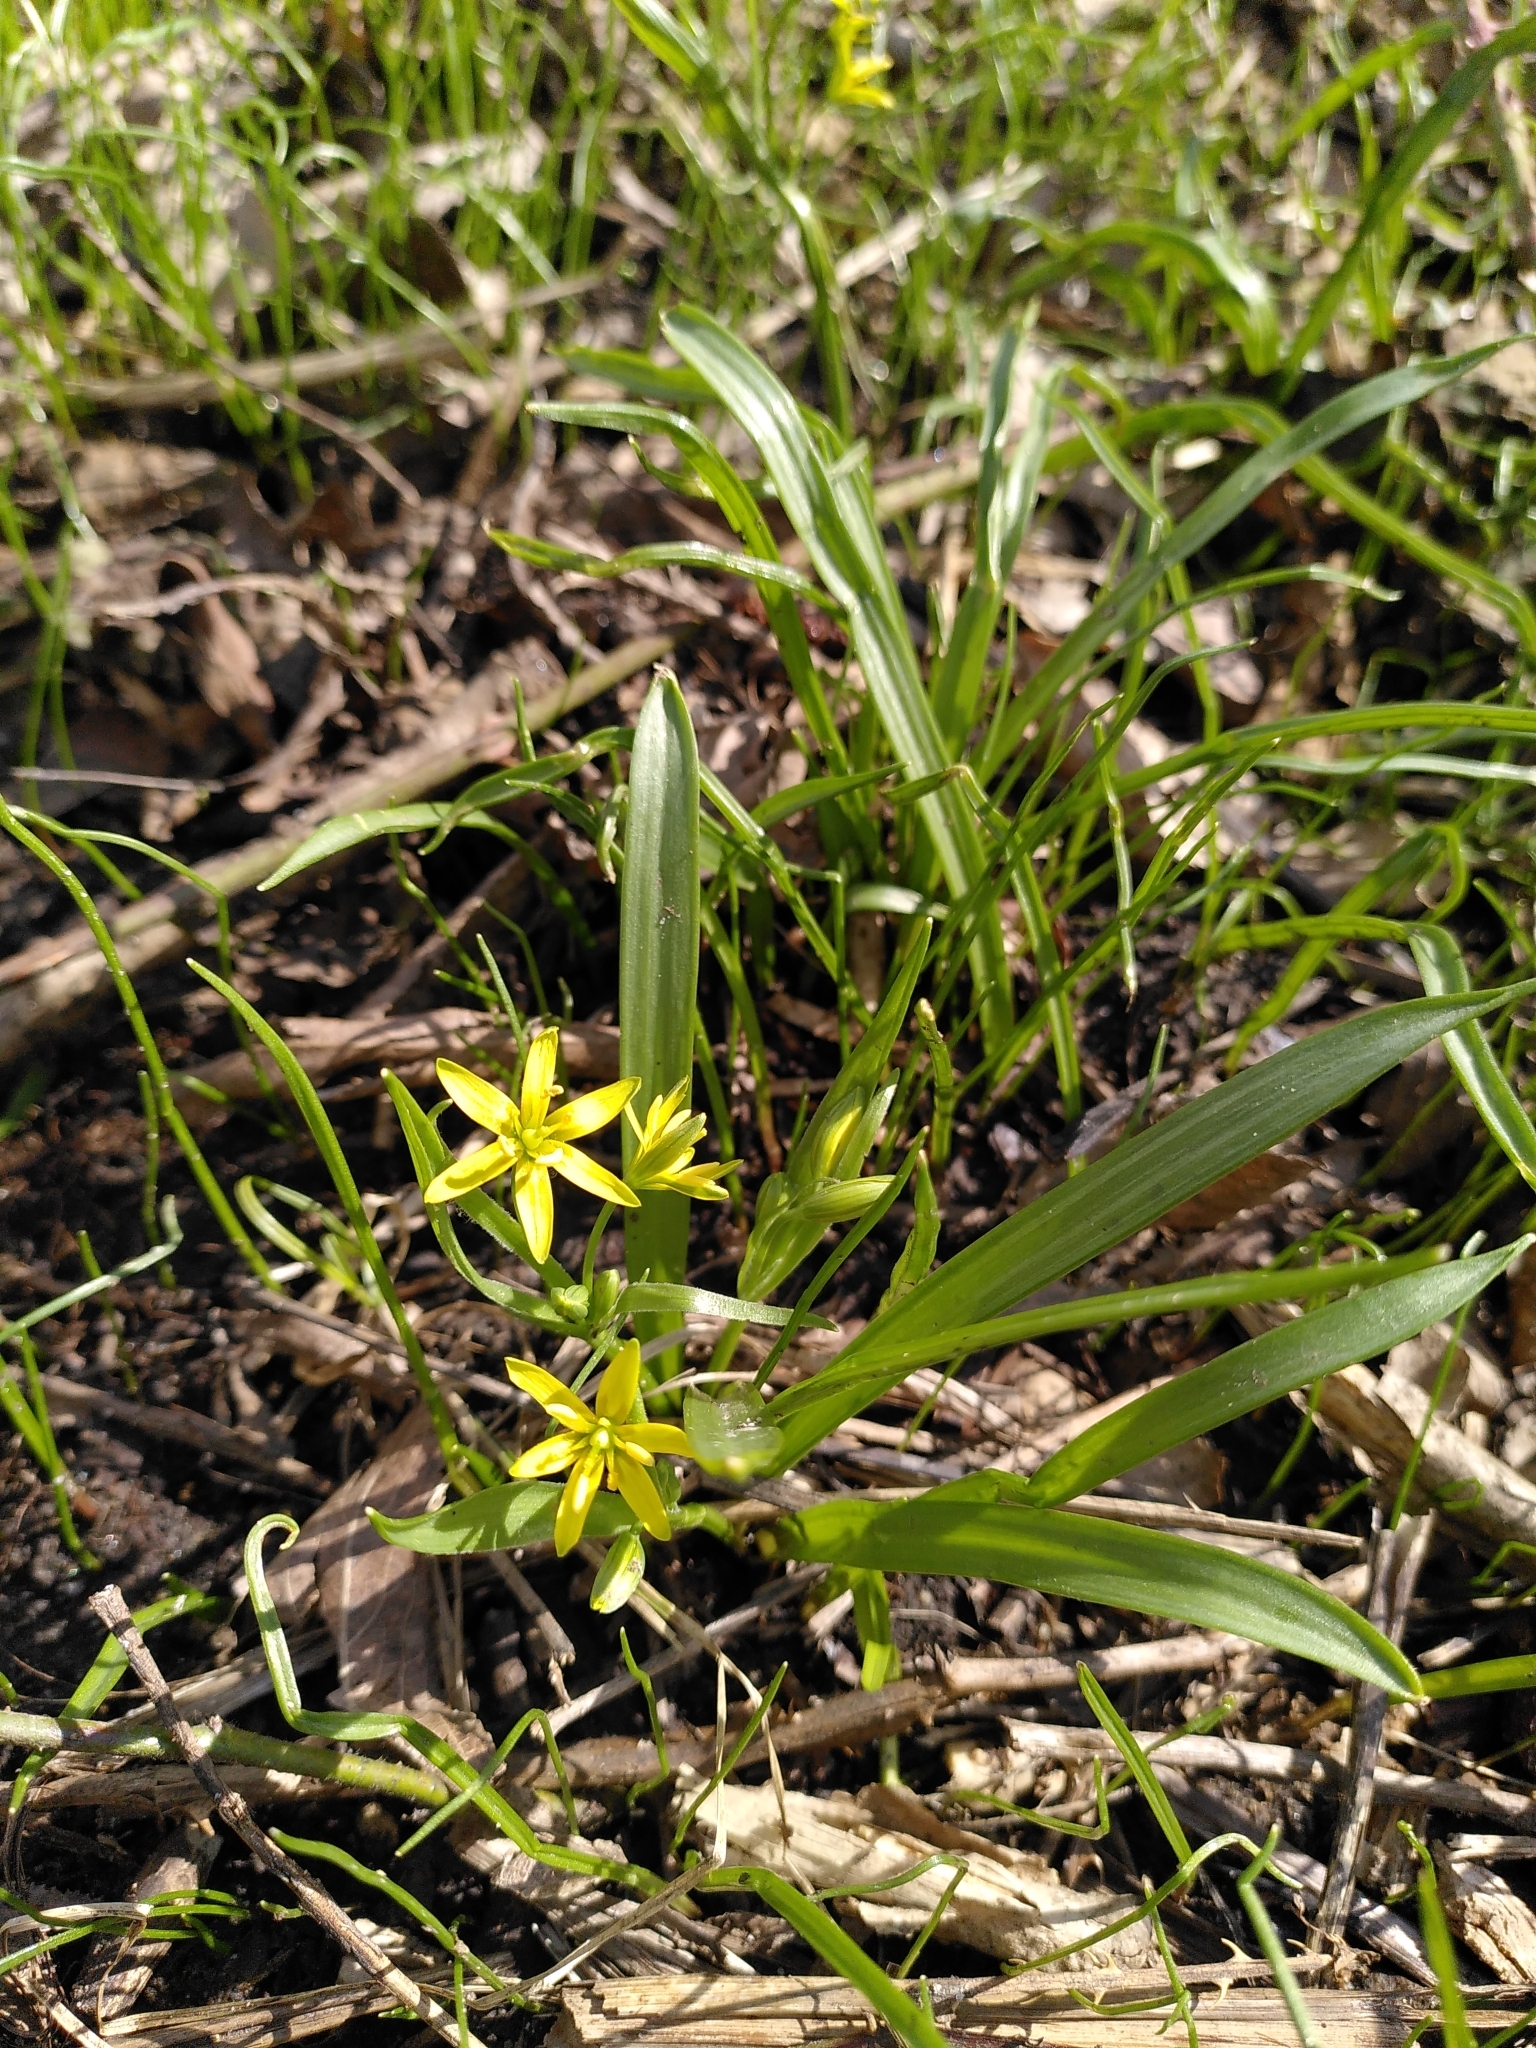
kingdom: Plantae
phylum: Tracheophyta
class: Liliopsida
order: Liliales
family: Liliaceae
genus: Gagea
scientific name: Gagea lutea
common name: Yellow star-of-bethlehem
